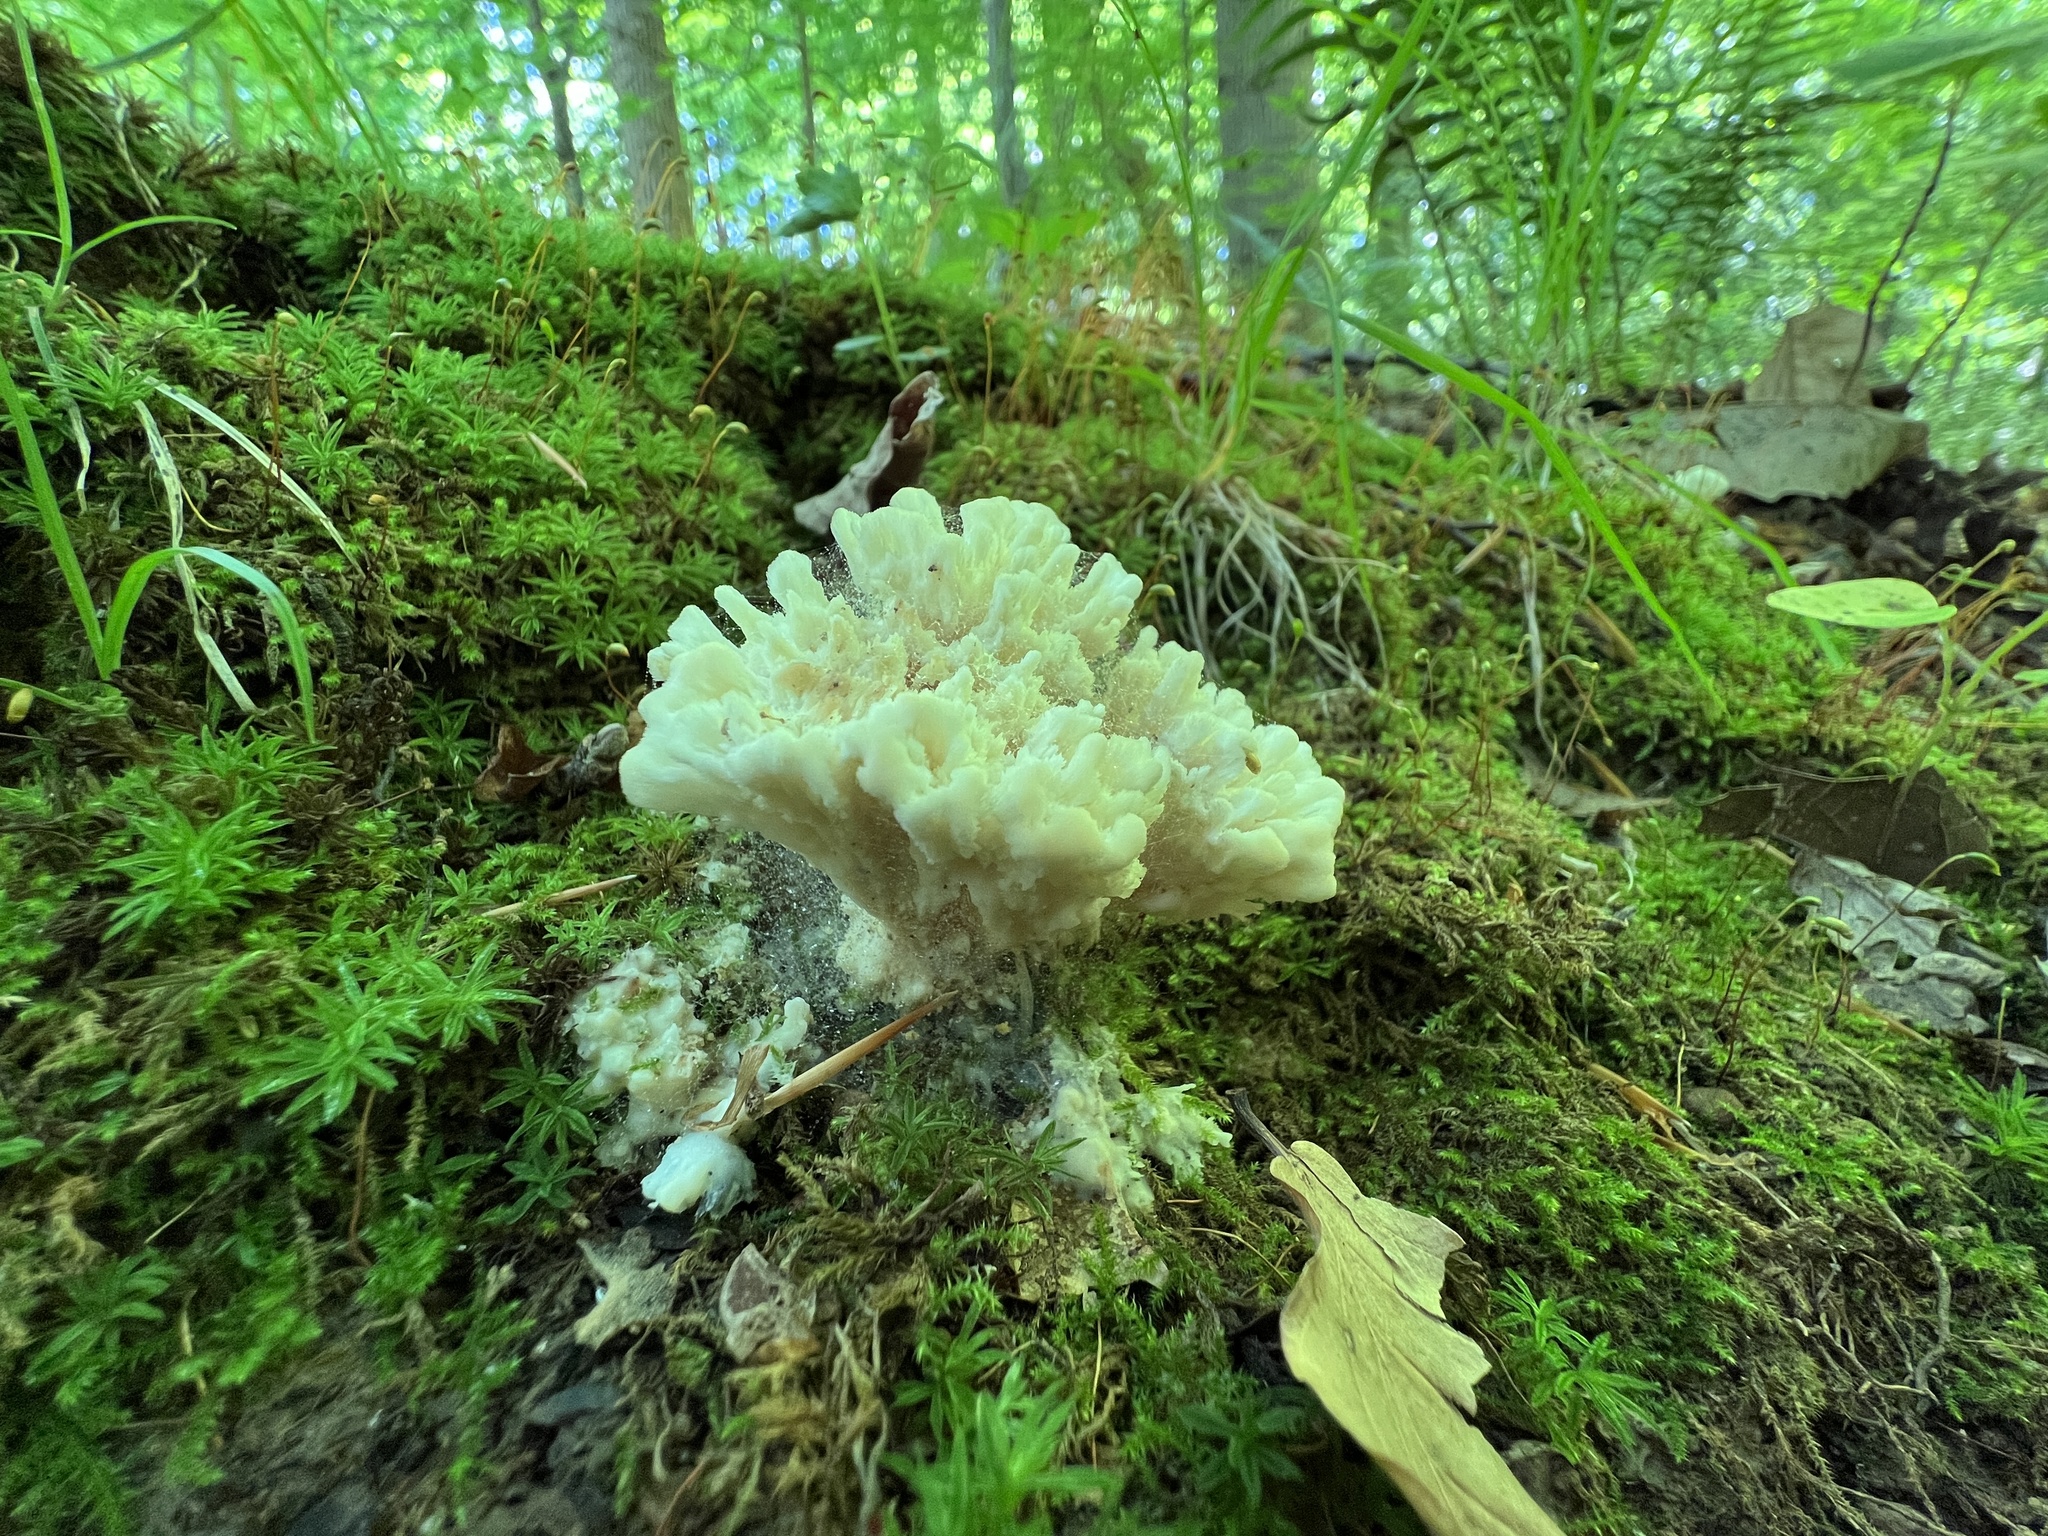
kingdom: Fungi
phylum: Basidiomycota
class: Agaricomycetes
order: Sebacinales
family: Sebacinaceae
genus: Sebacina
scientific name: Sebacina schweinitzii
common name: Jellied false coral fungus
